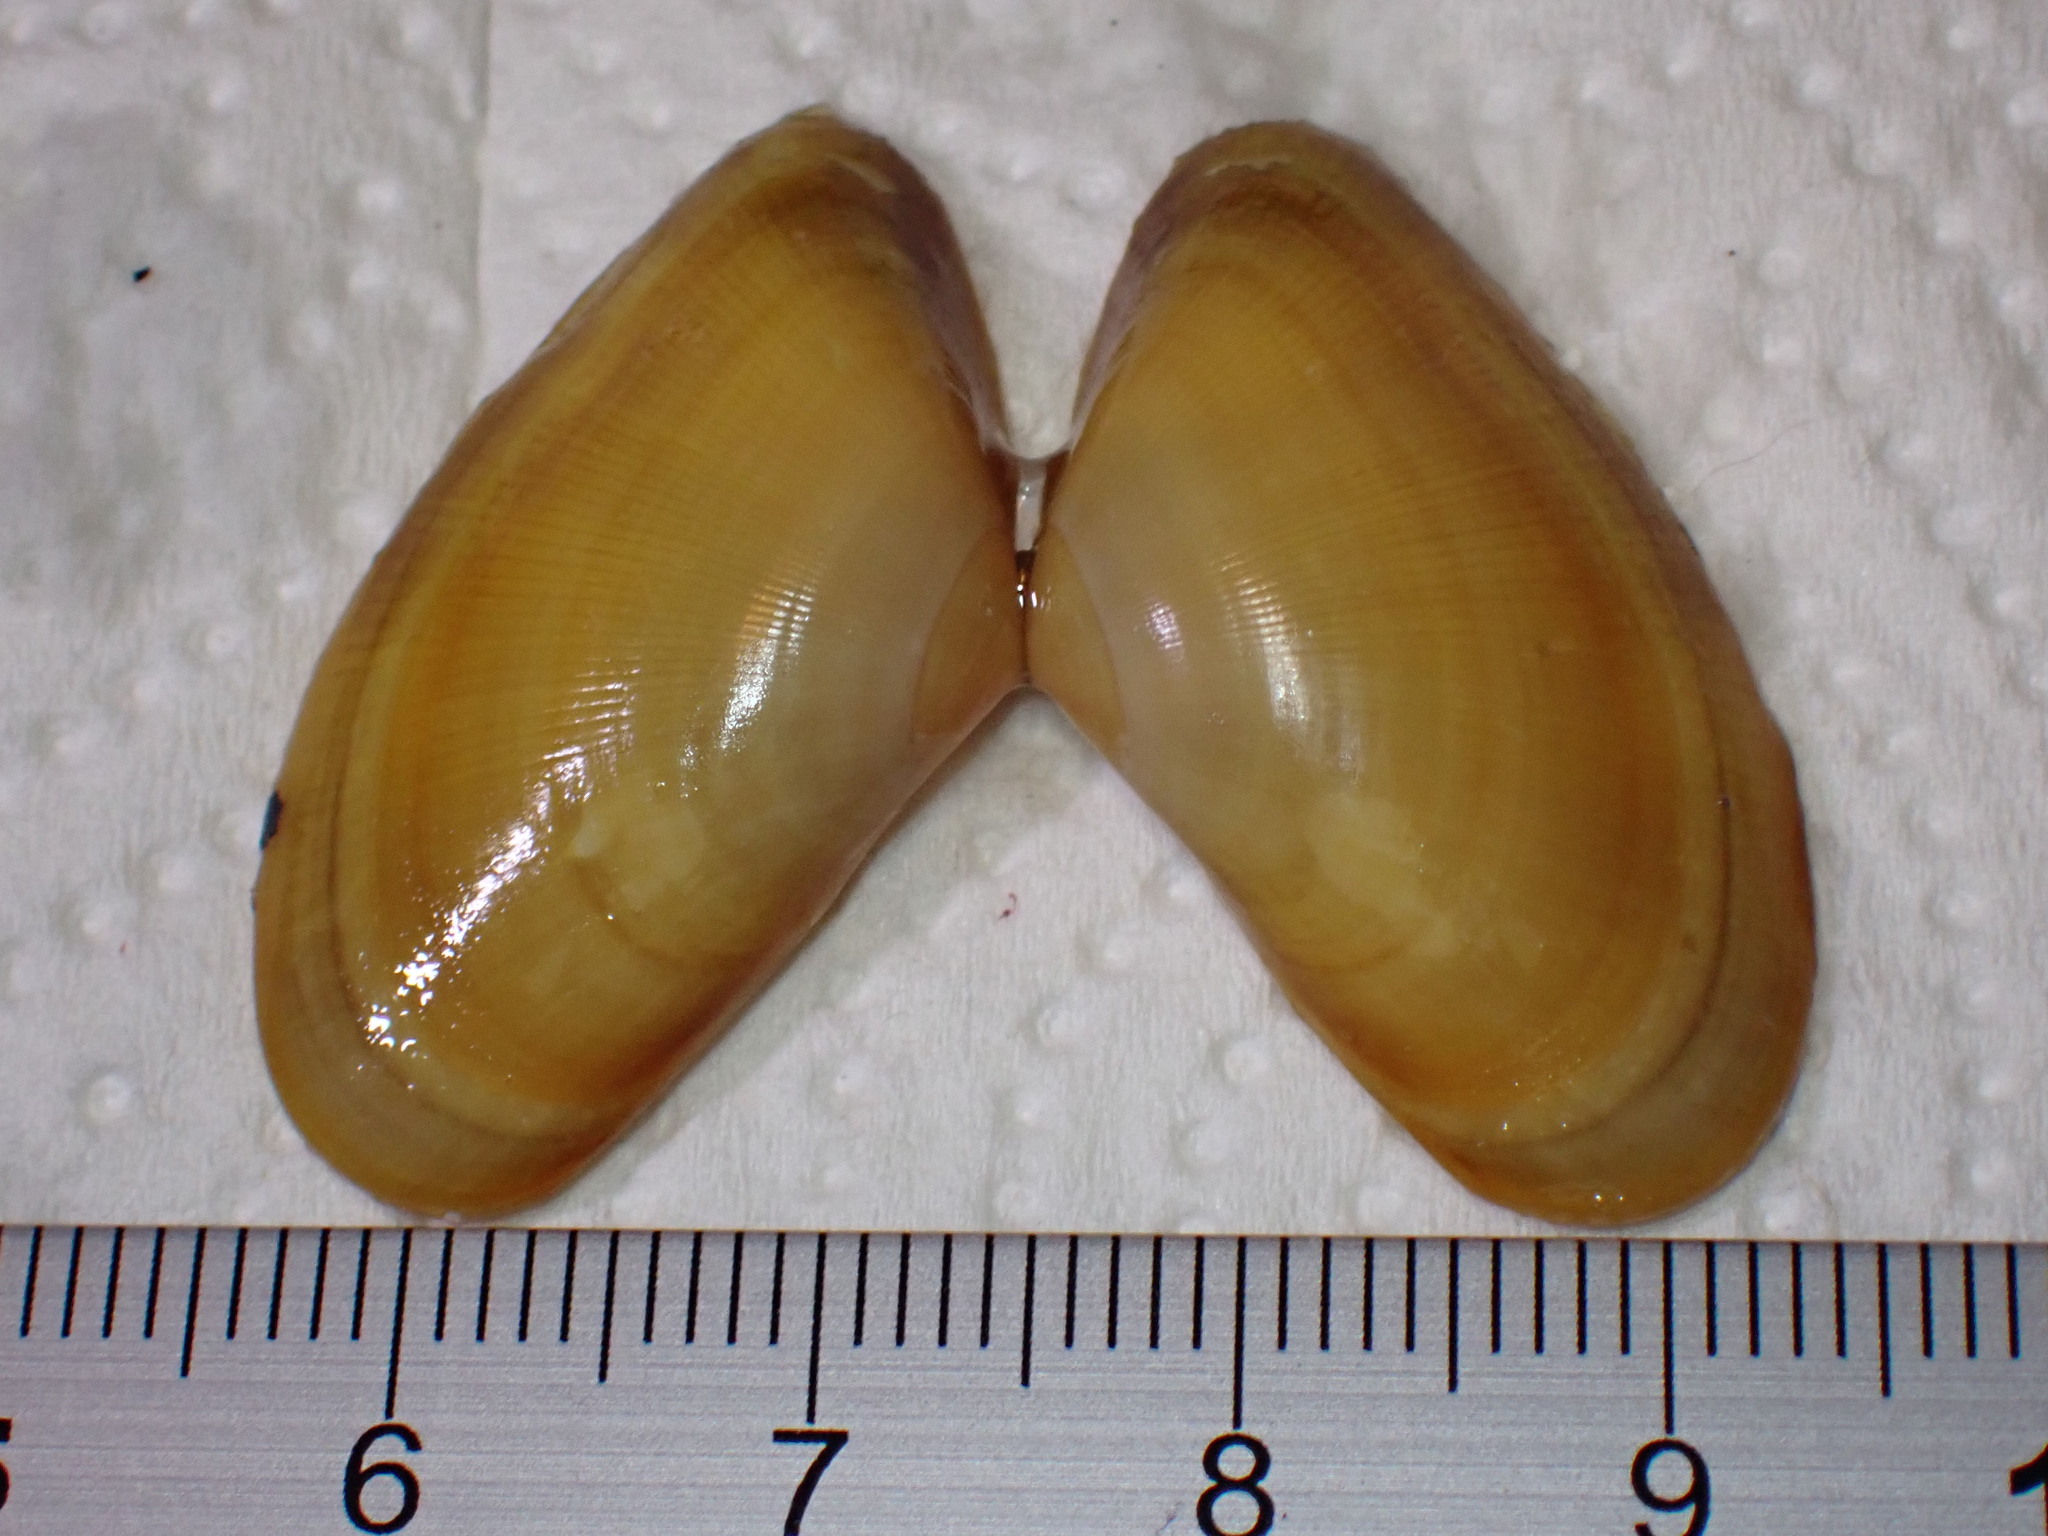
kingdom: Animalia
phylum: Mollusca
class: Bivalvia
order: Cardiida
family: Donacidae
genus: Donax
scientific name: Donax vittatus
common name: Banded wedge-shell
